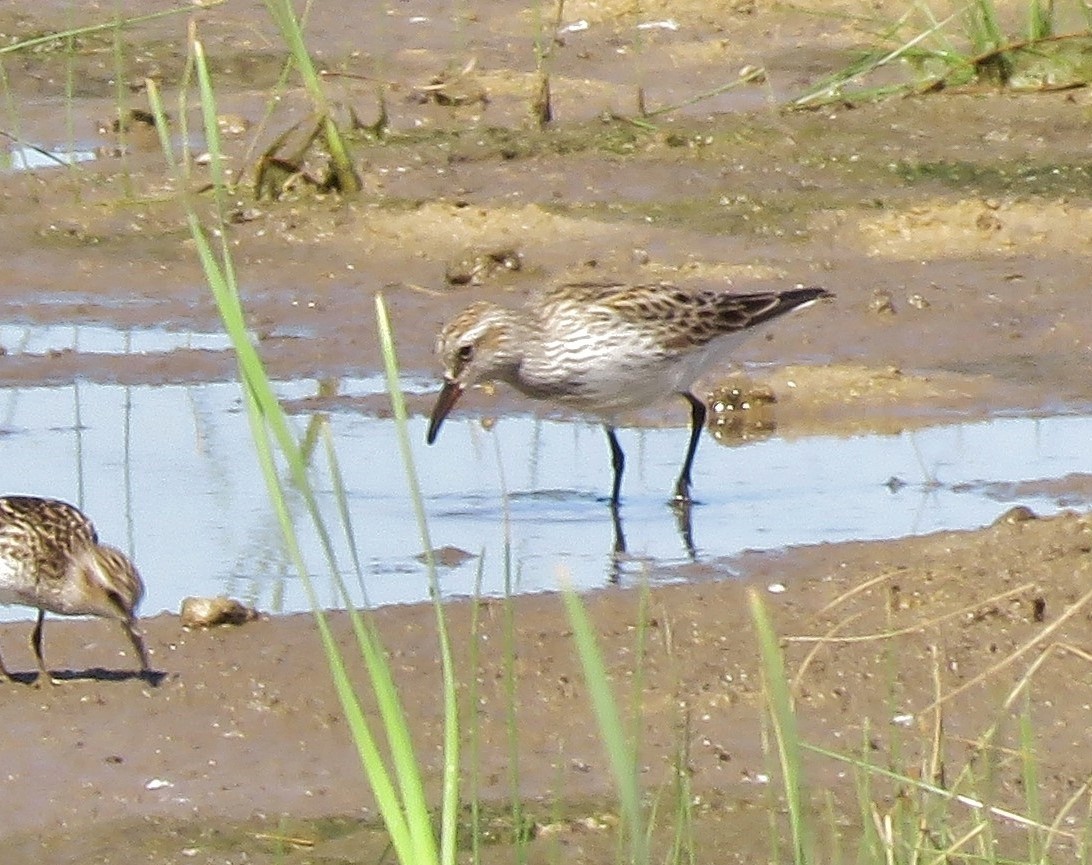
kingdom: Animalia
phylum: Chordata
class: Aves
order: Charadriiformes
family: Scolopacidae
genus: Calidris
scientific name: Calidris fuscicollis
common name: White-rumped sandpiper
